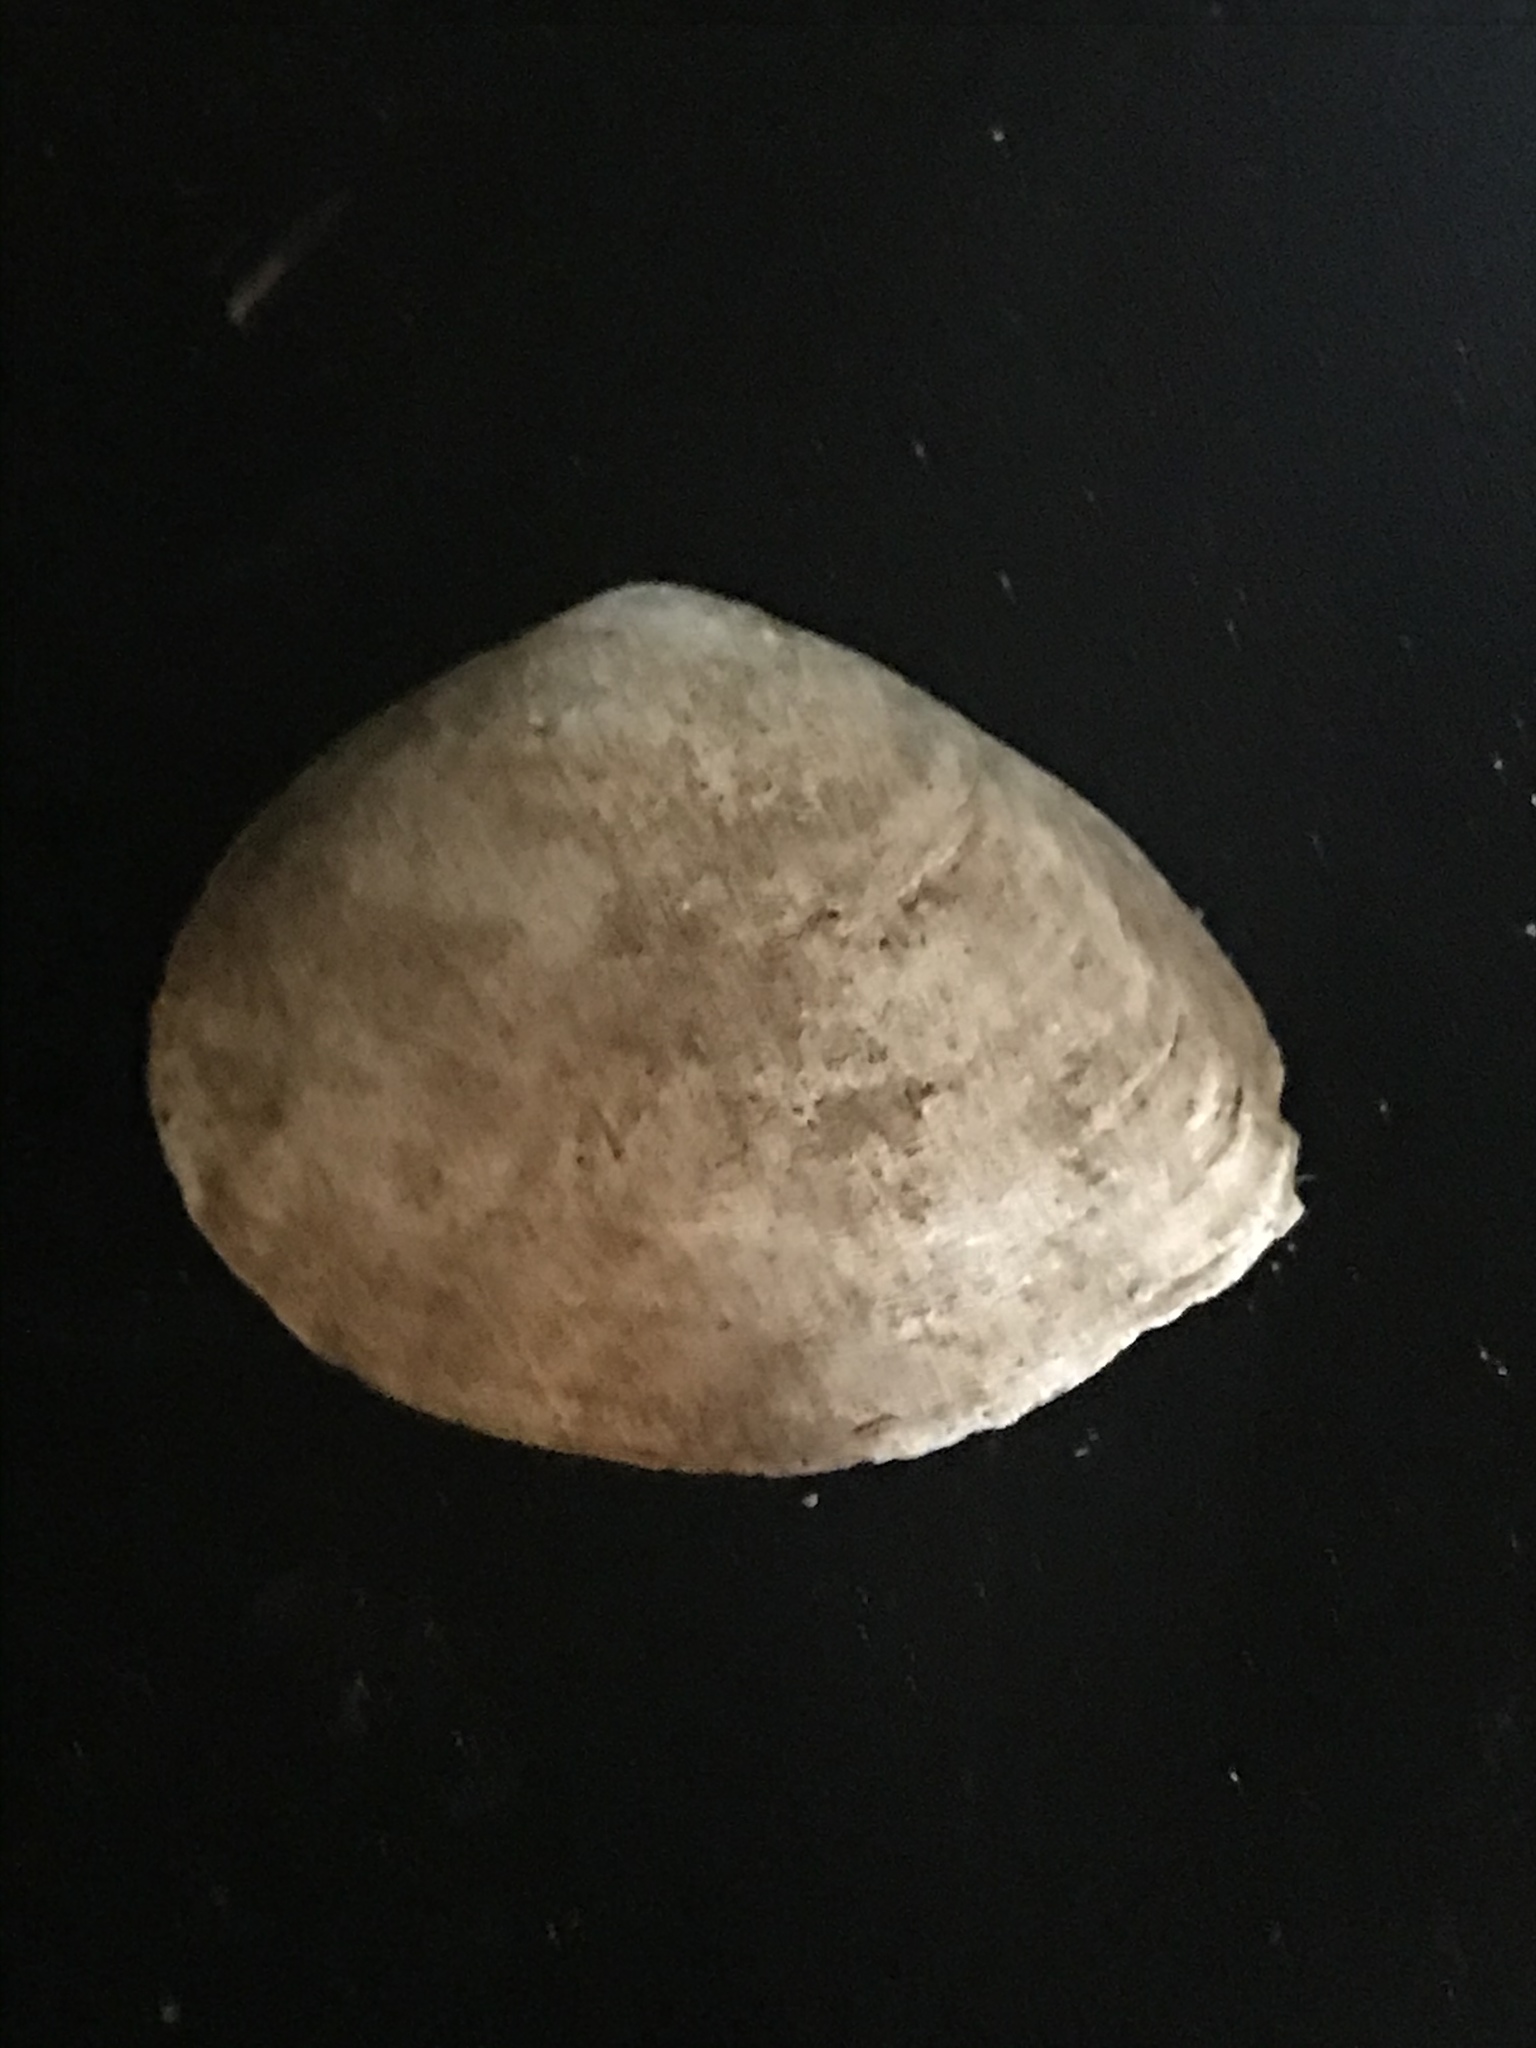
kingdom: Animalia
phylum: Mollusca
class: Bivalvia
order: Cardiida
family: Tellinidae
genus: Macoma
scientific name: Macoma inquinata
